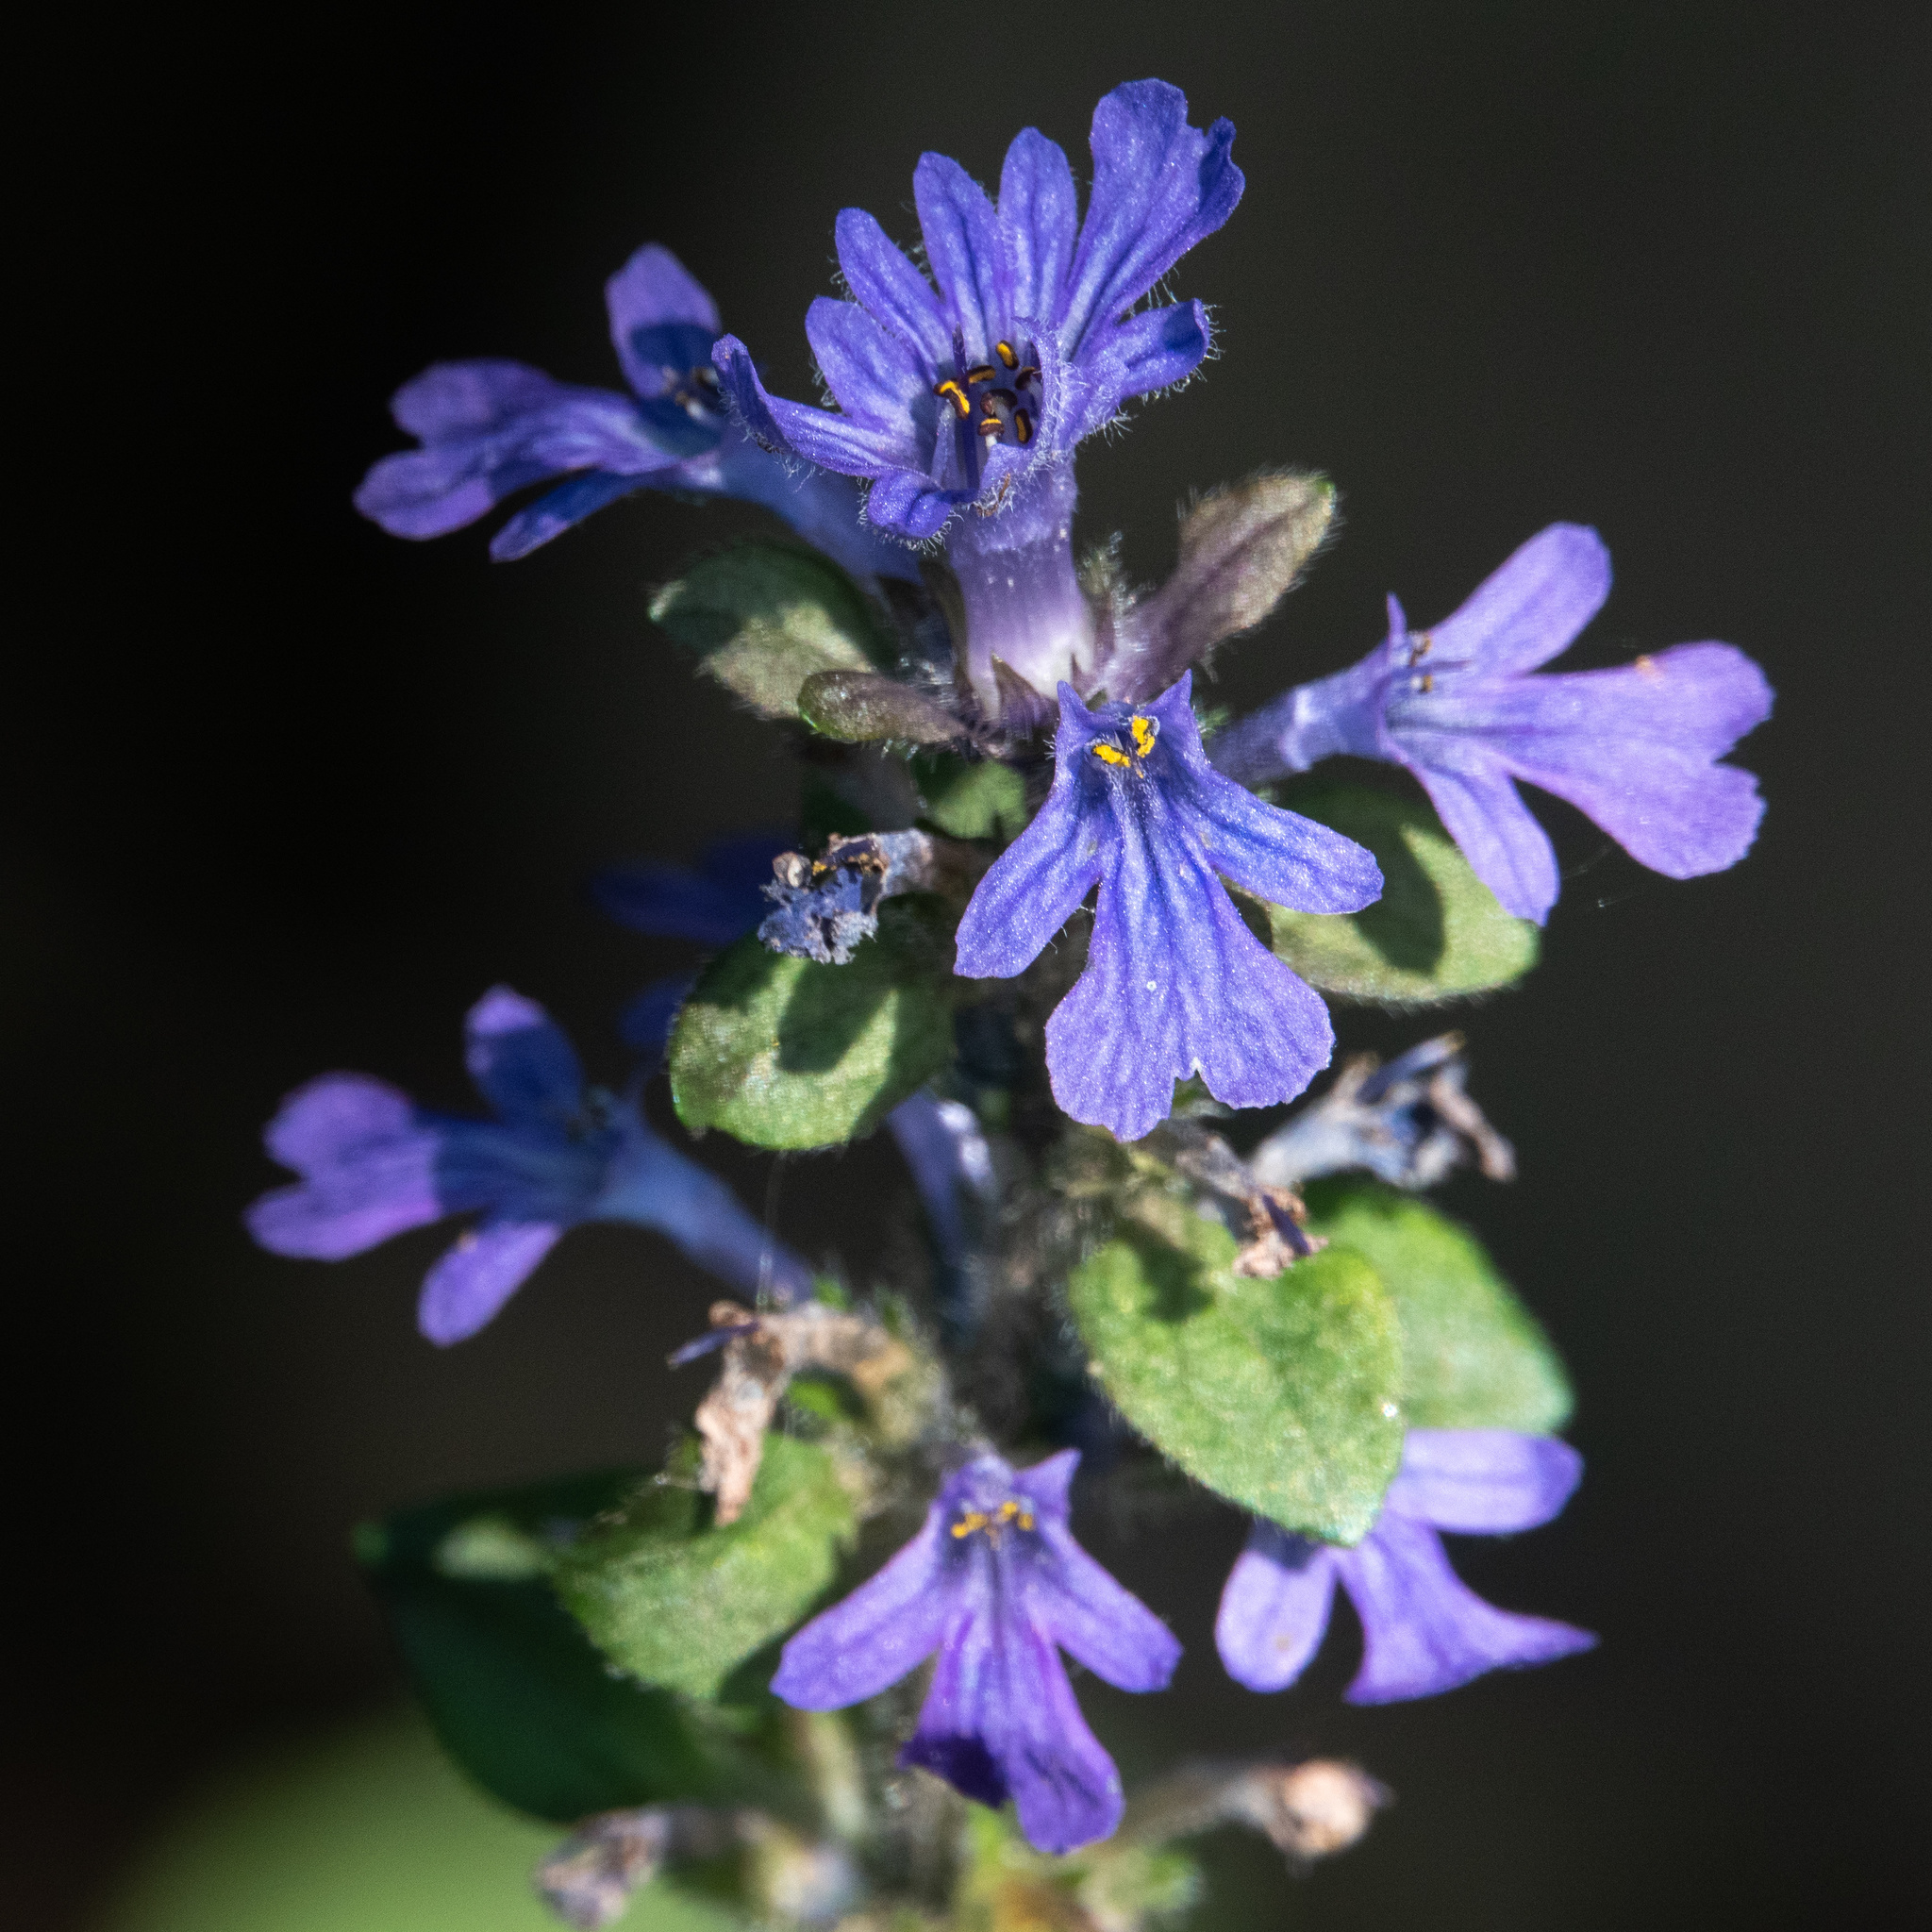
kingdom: Plantae
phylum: Tracheophyta
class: Magnoliopsida
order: Lamiales
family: Lamiaceae
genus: Ajuga
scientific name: Ajuga reptans
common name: Bugle
